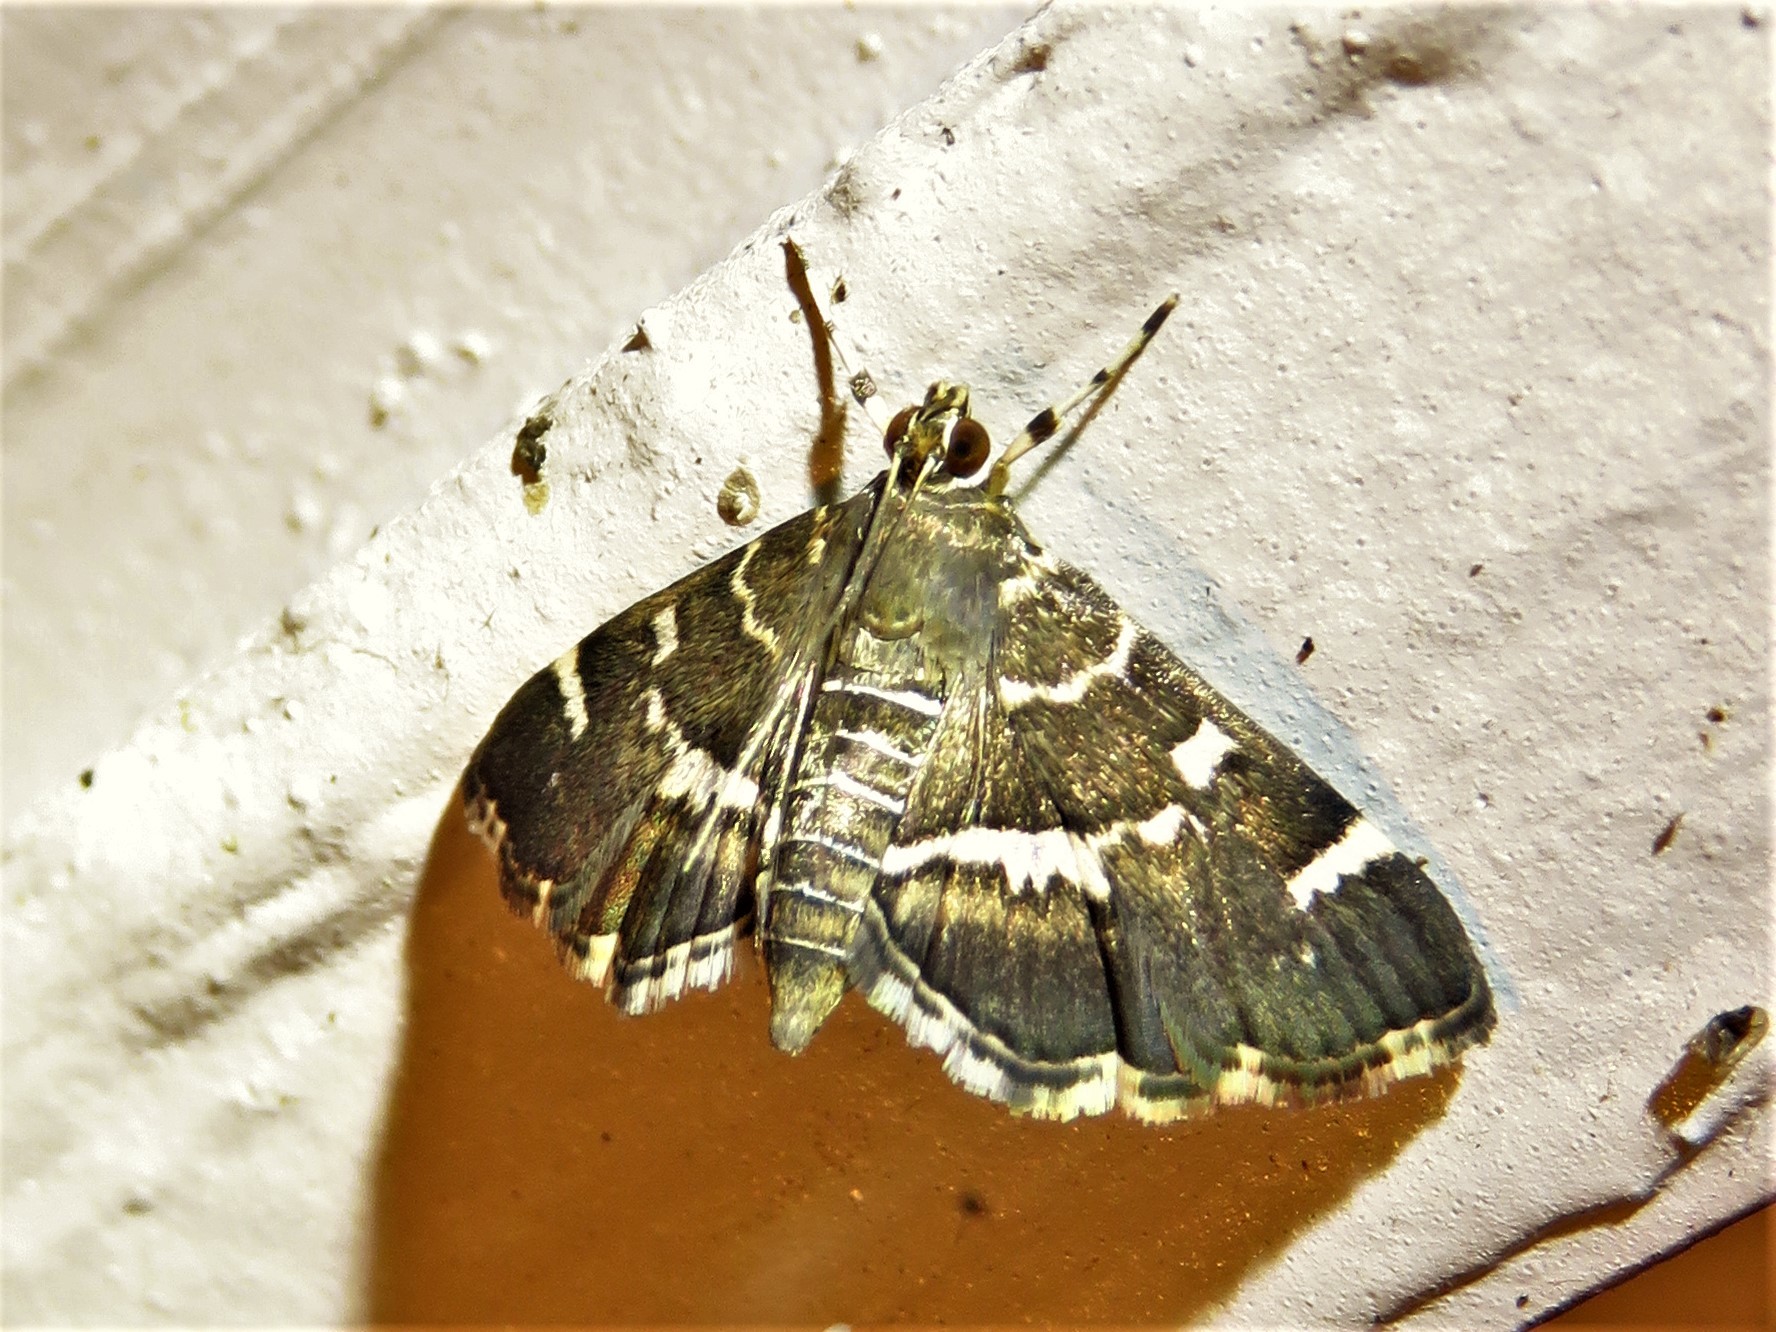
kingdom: Animalia
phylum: Arthropoda
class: Insecta
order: Lepidoptera
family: Crambidae
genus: Hymenia
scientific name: Hymenia perspectalis
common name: Spotted beet webworm
